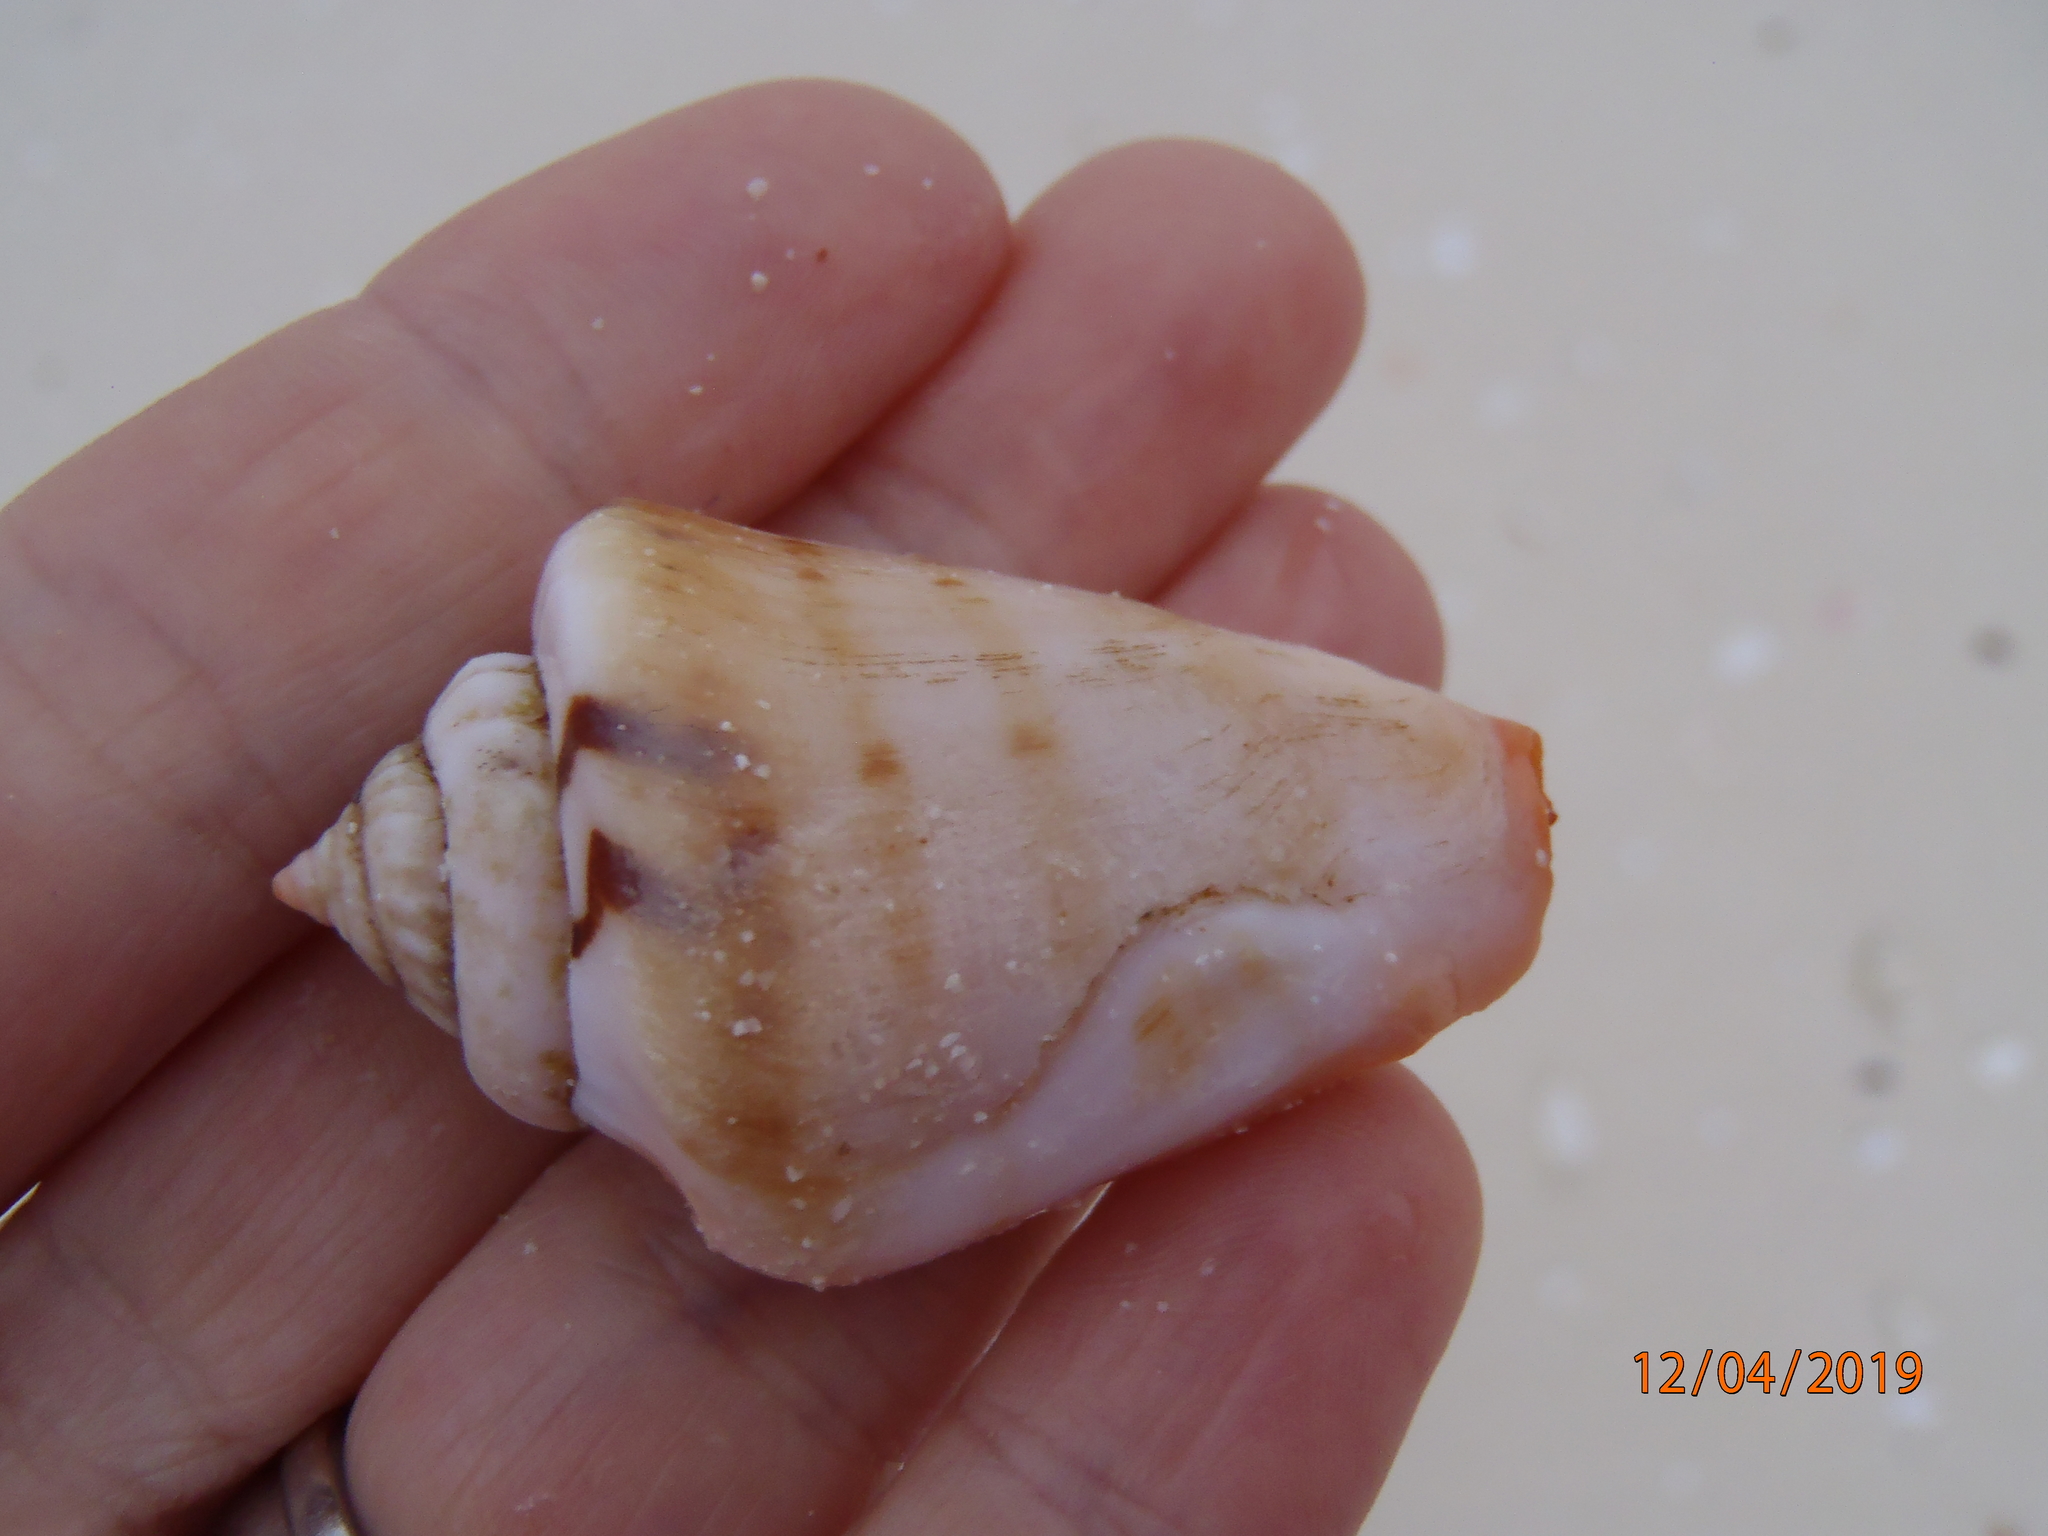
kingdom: Animalia
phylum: Mollusca
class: Gastropoda
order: Littorinimorpha
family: Strombidae
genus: Conomurex
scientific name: Conomurex luhuanus
